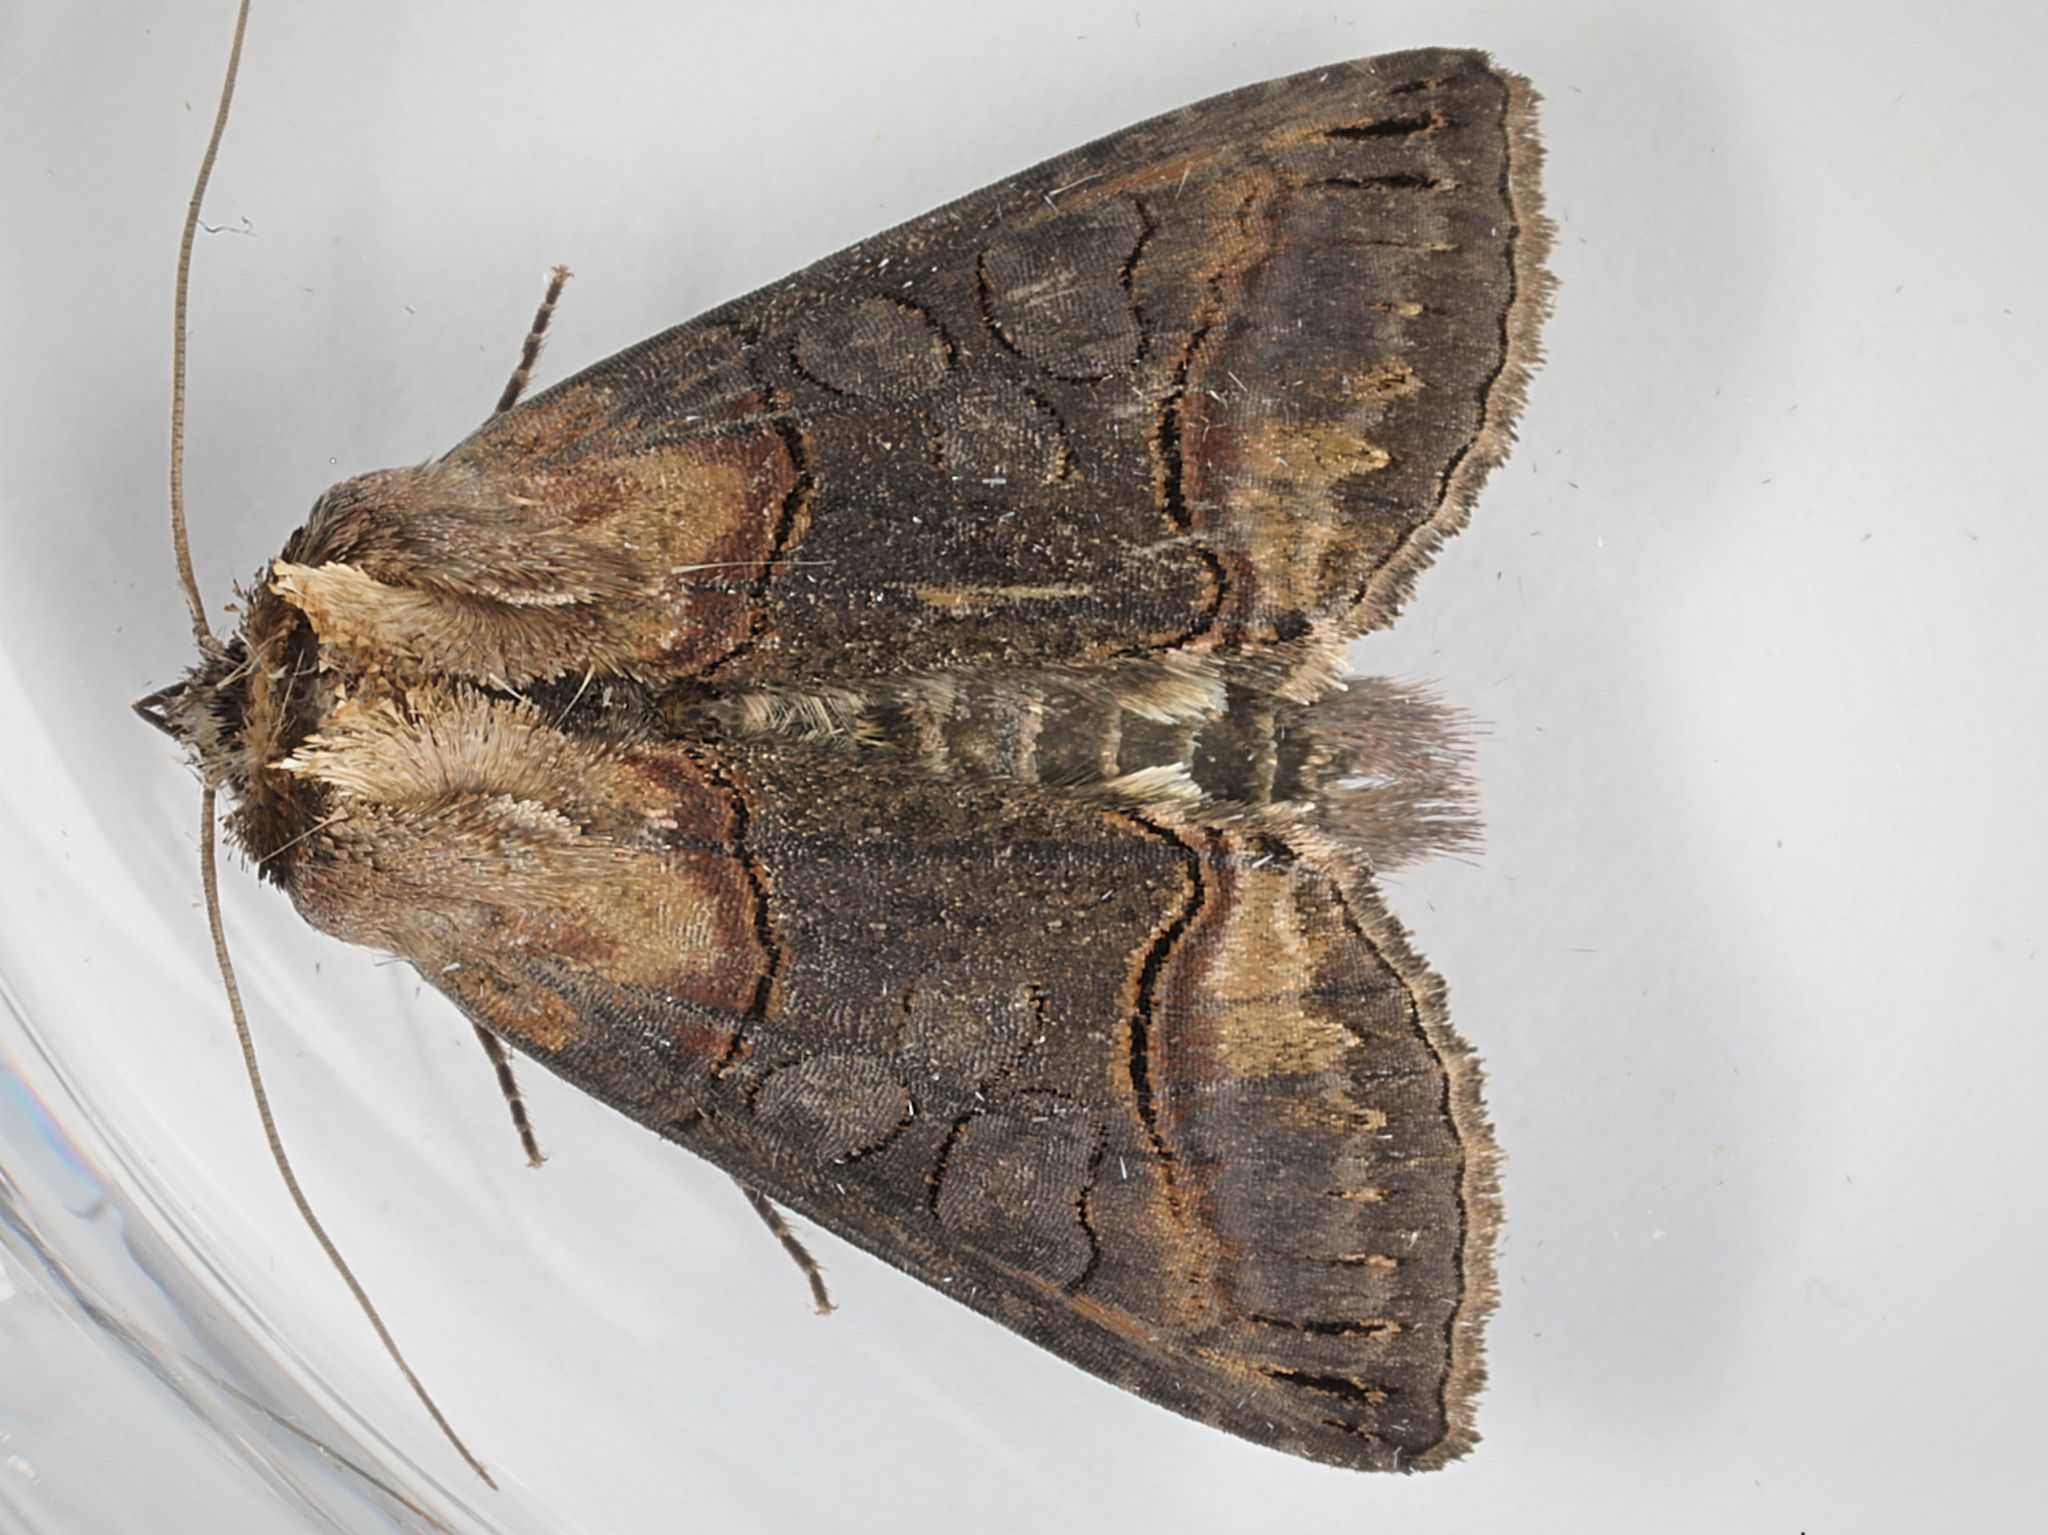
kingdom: Animalia
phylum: Arthropoda
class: Insecta
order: Lepidoptera
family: Noctuidae
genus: Abrostola
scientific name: Abrostola triplasia
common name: Dark spectacle
